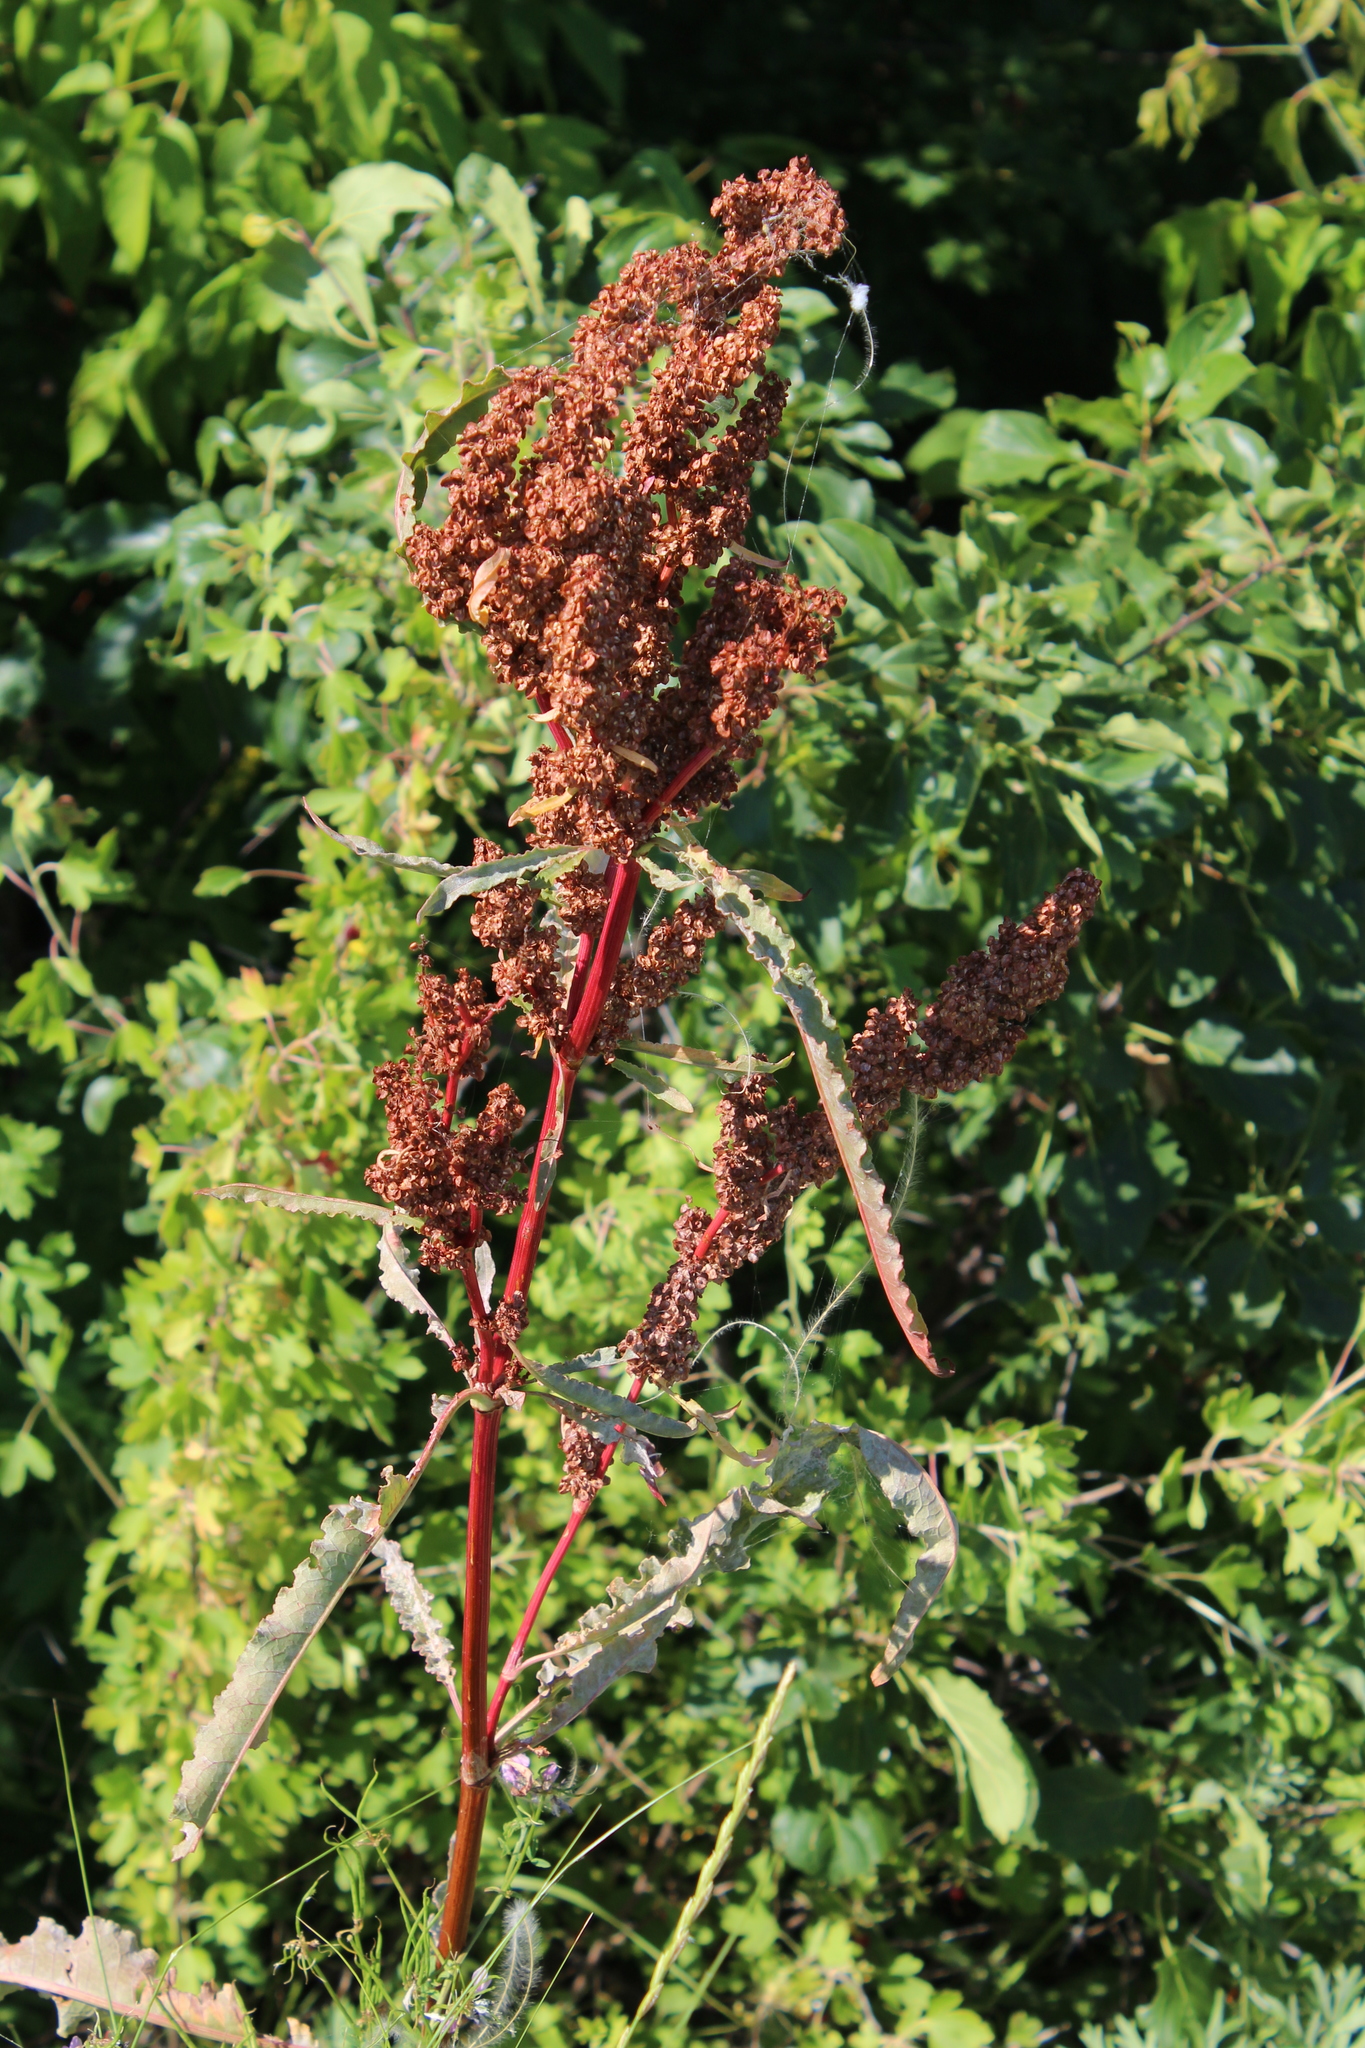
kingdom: Plantae
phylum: Tracheophyta
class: Magnoliopsida
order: Caryophyllales
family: Polygonaceae
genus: Rumex
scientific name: Rumex crispus
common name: Curled dock
